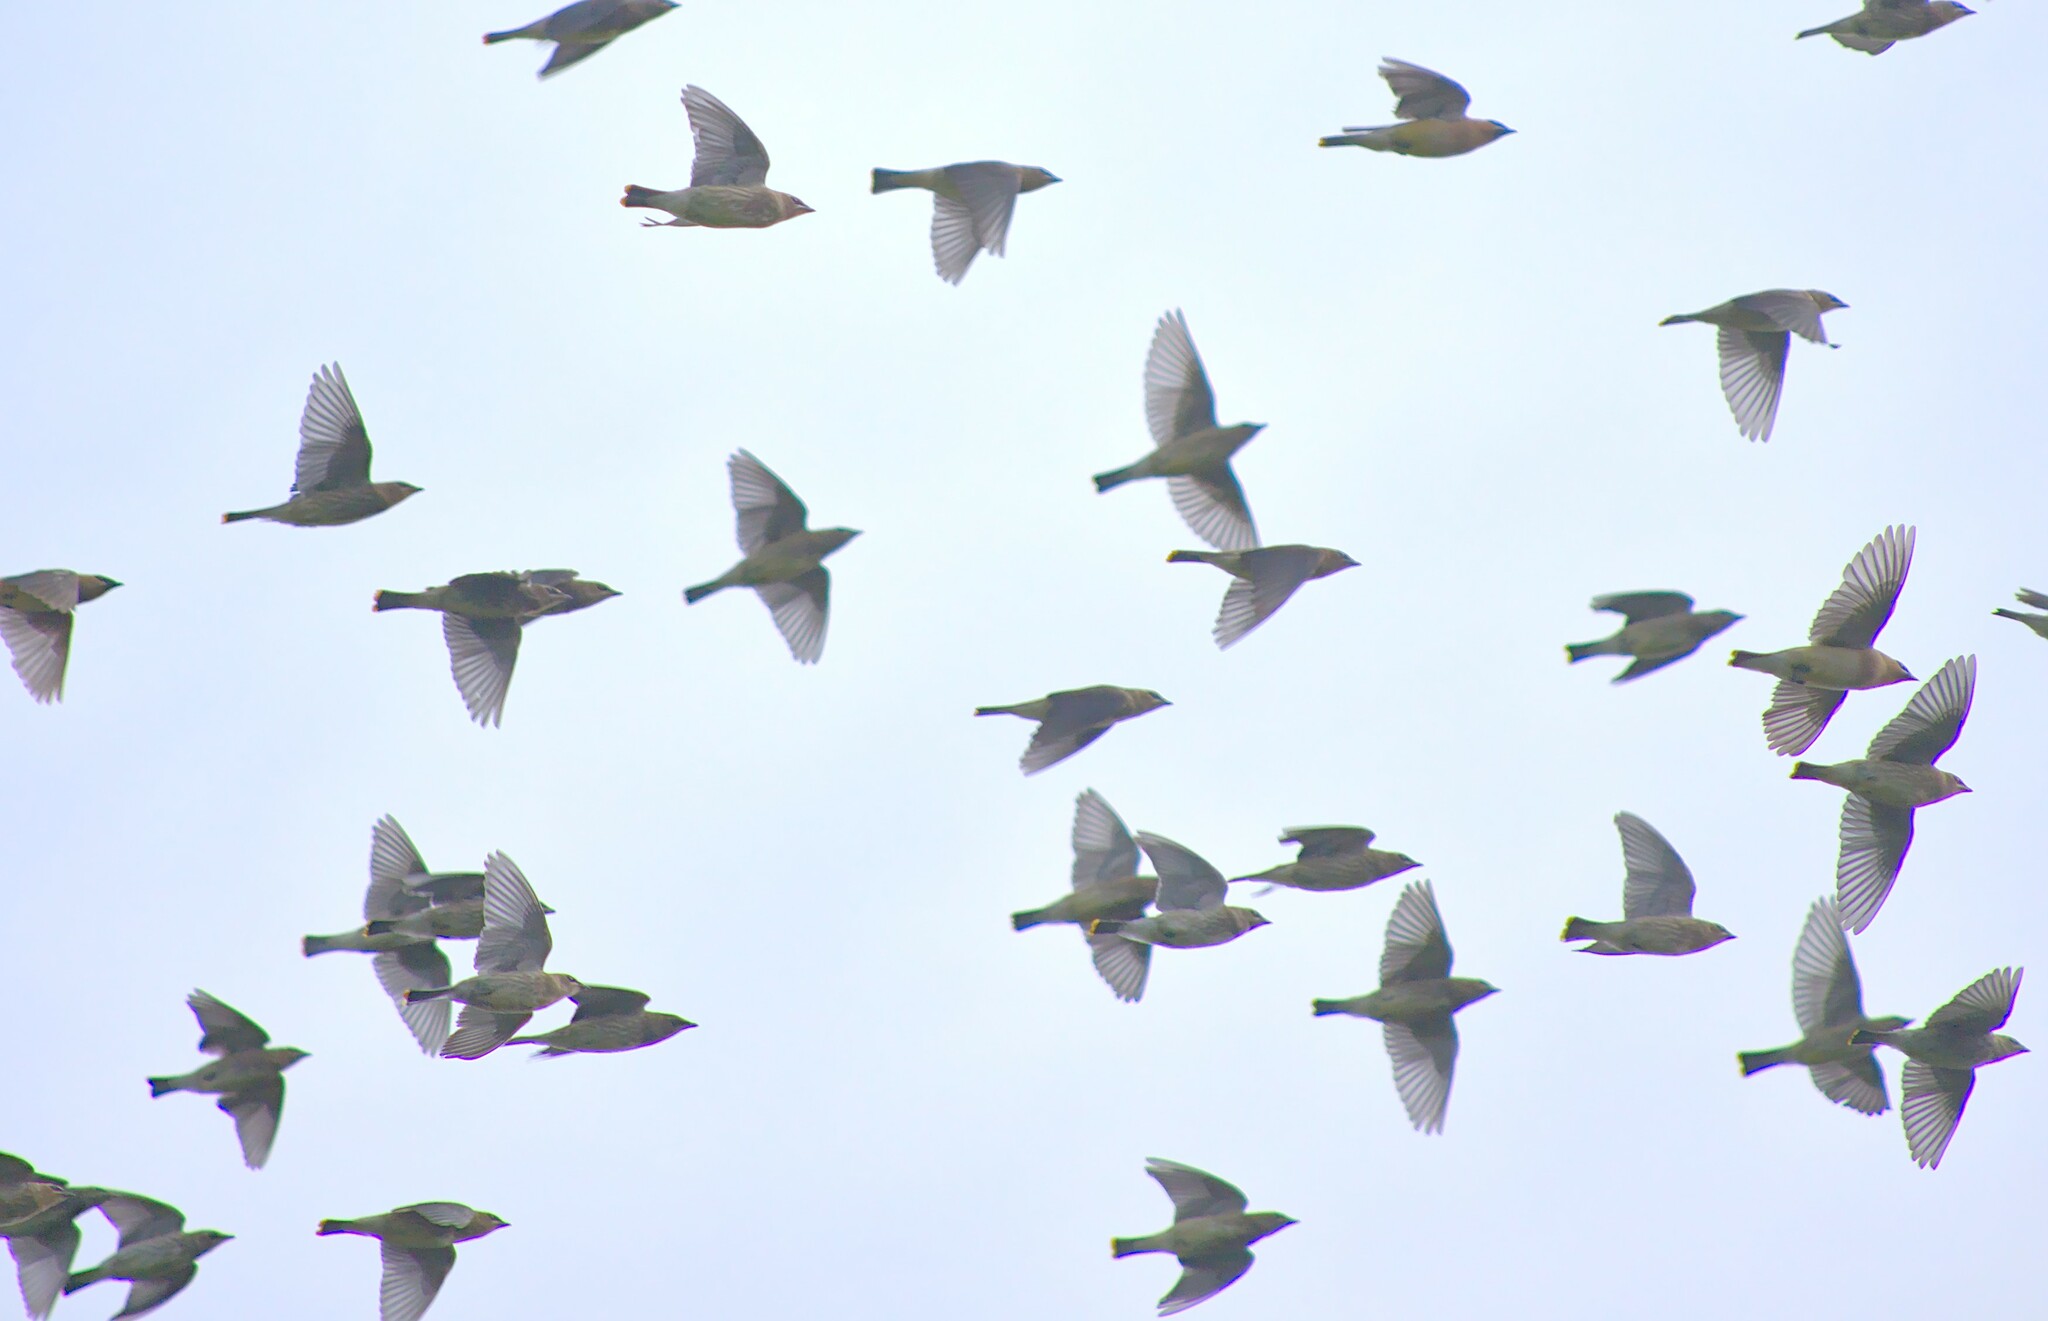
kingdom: Animalia
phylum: Chordata
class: Aves
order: Passeriformes
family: Bombycillidae
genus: Bombycilla
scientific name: Bombycilla cedrorum
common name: Cedar waxwing
